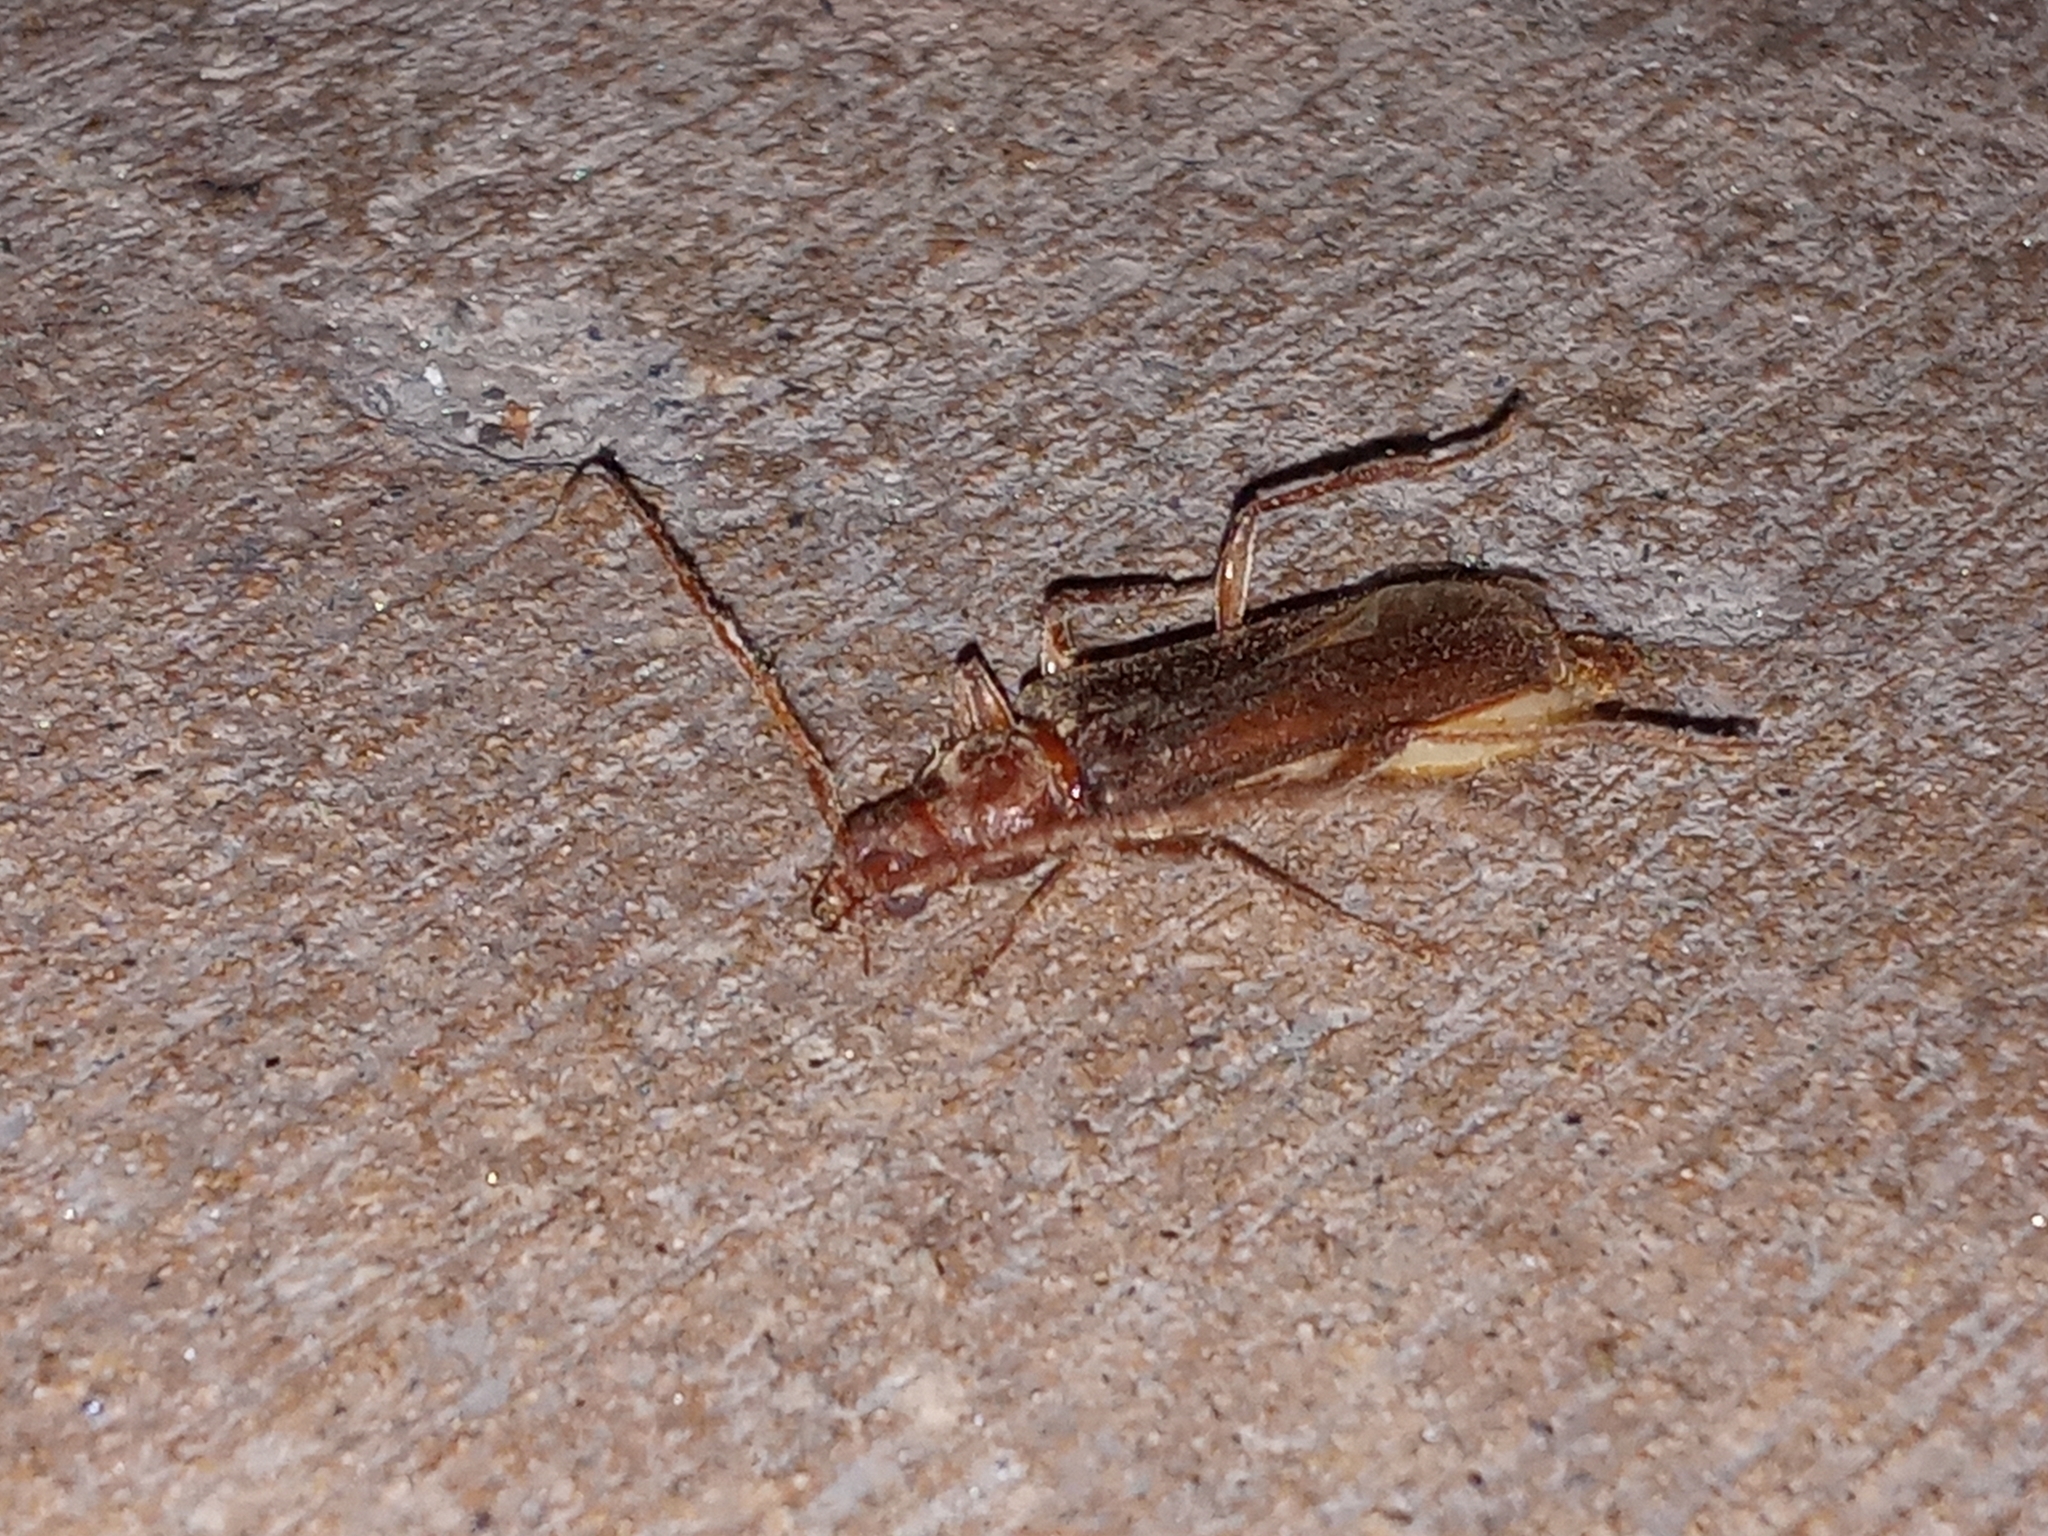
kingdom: Animalia
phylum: Arthropoda
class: Insecta
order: Coleoptera
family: Cerambycidae
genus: Eucrossus
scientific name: Eucrossus villicornis
